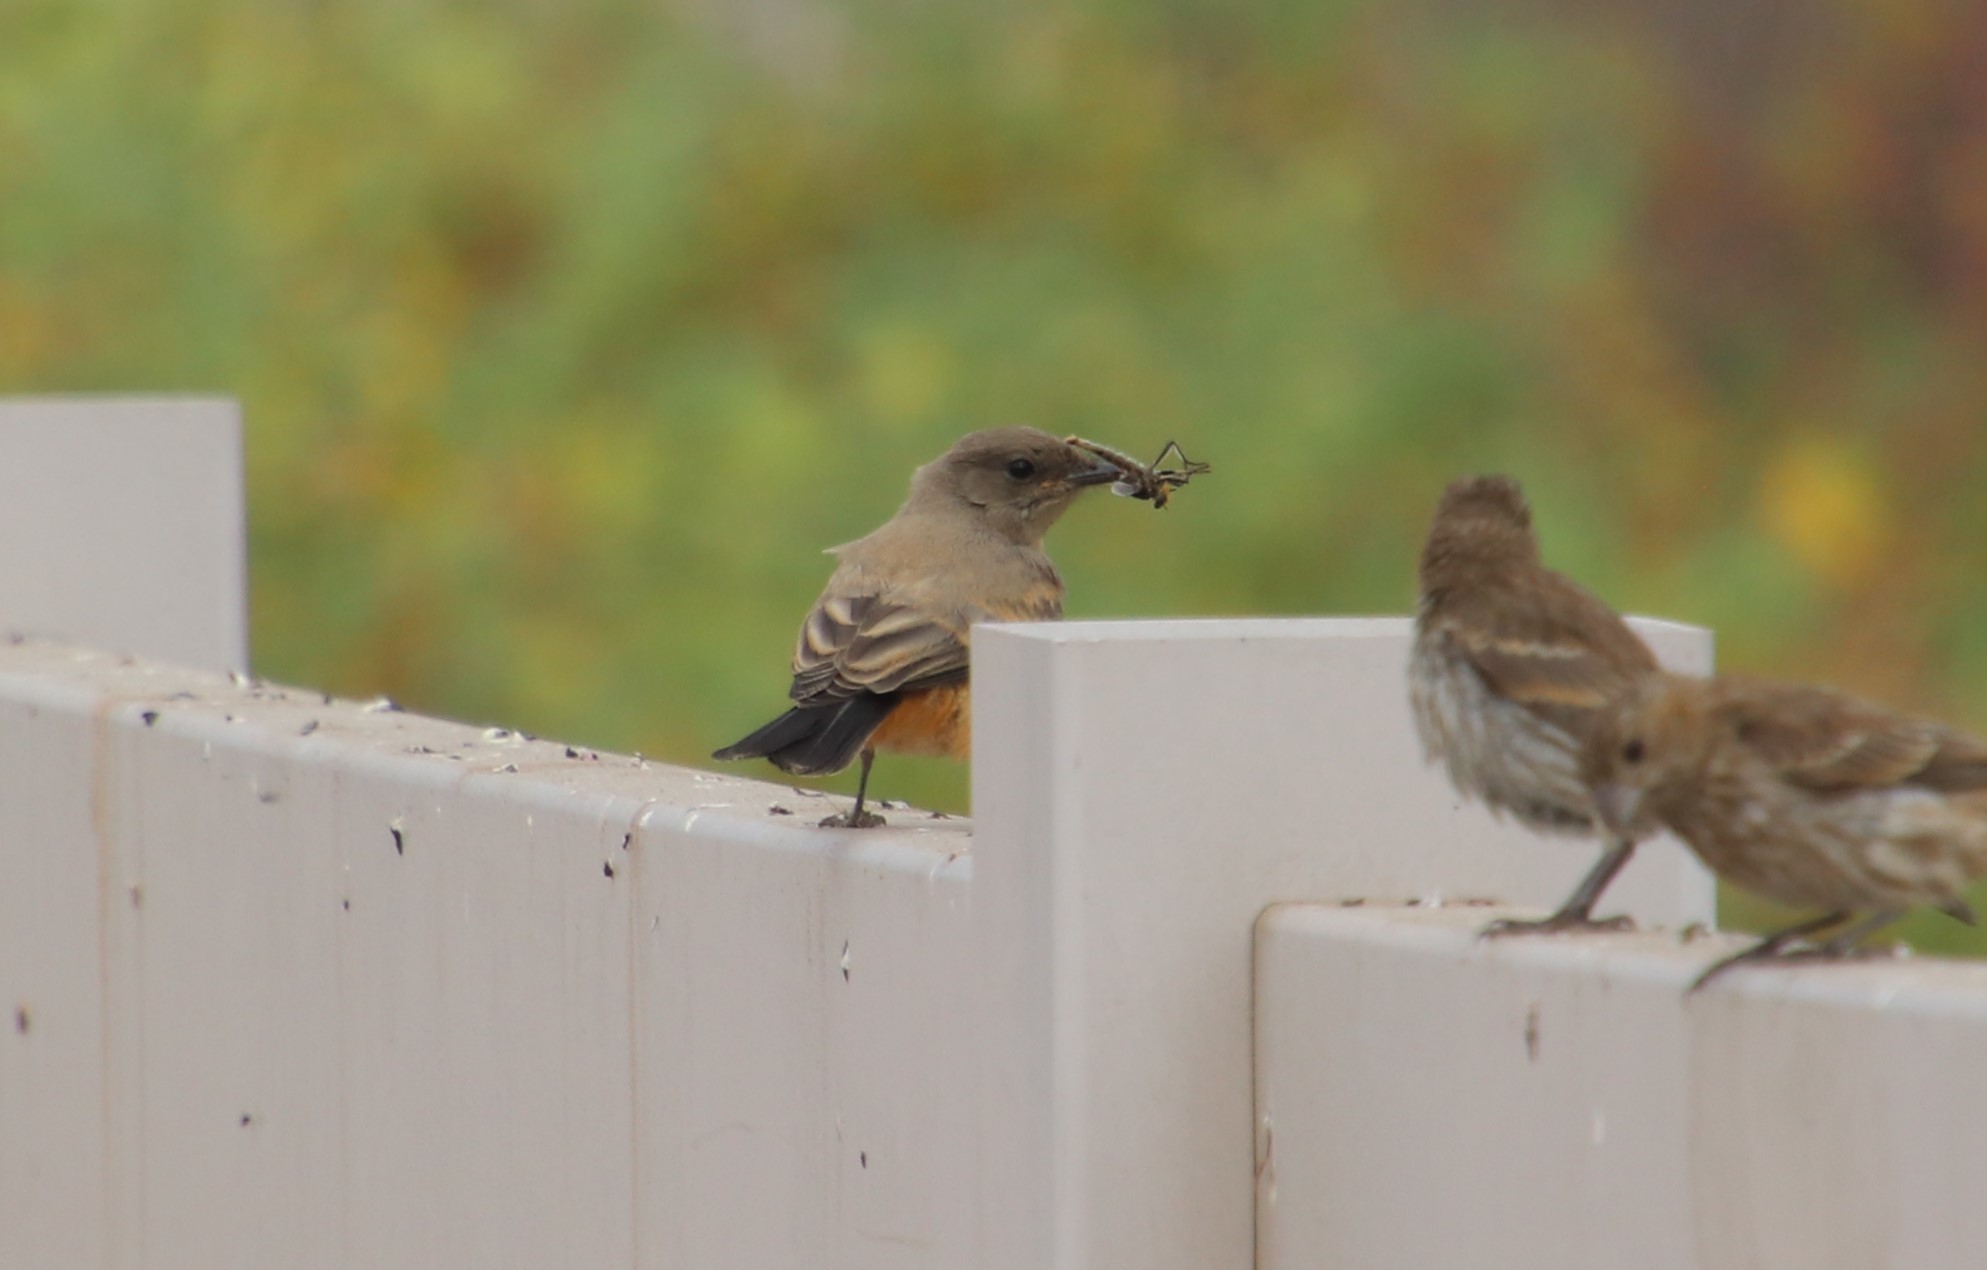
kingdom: Animalia
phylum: Chordata
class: Aves
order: Passeriformes
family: Tyrannidae
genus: Sayornis
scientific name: Sayornis saya
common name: Say's phoebe
